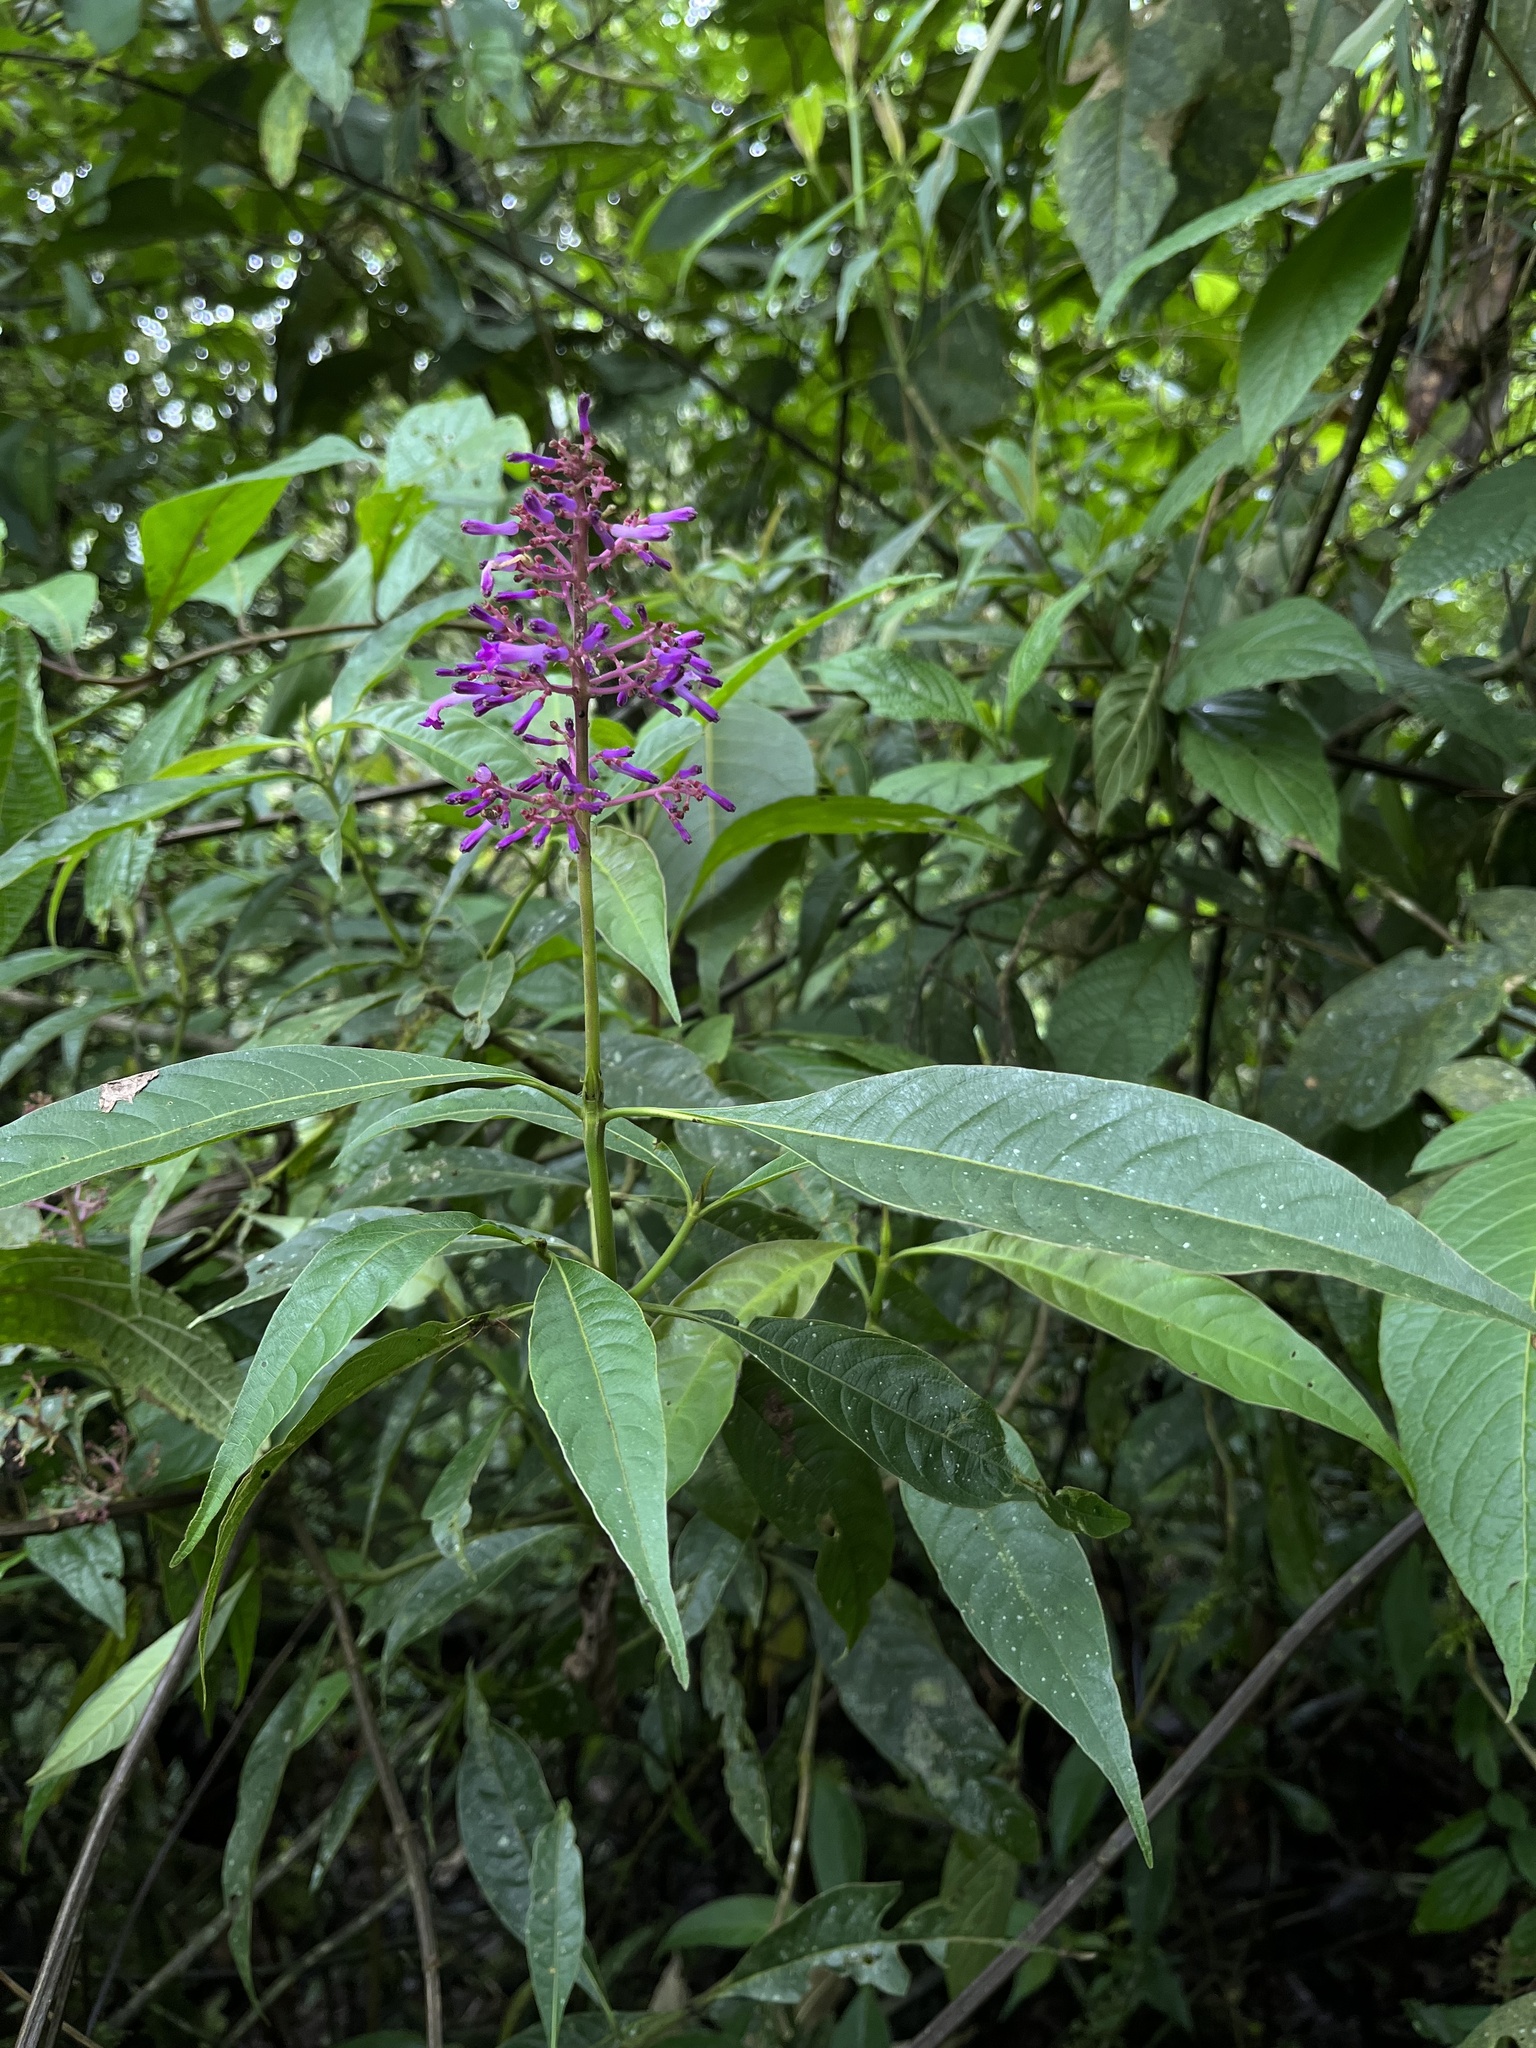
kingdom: Plantae
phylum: Tracheophyta
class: Magnoliopsida
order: Gentianales
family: Rubiaceae
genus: Palicourea
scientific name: Palicourea angustifolia
